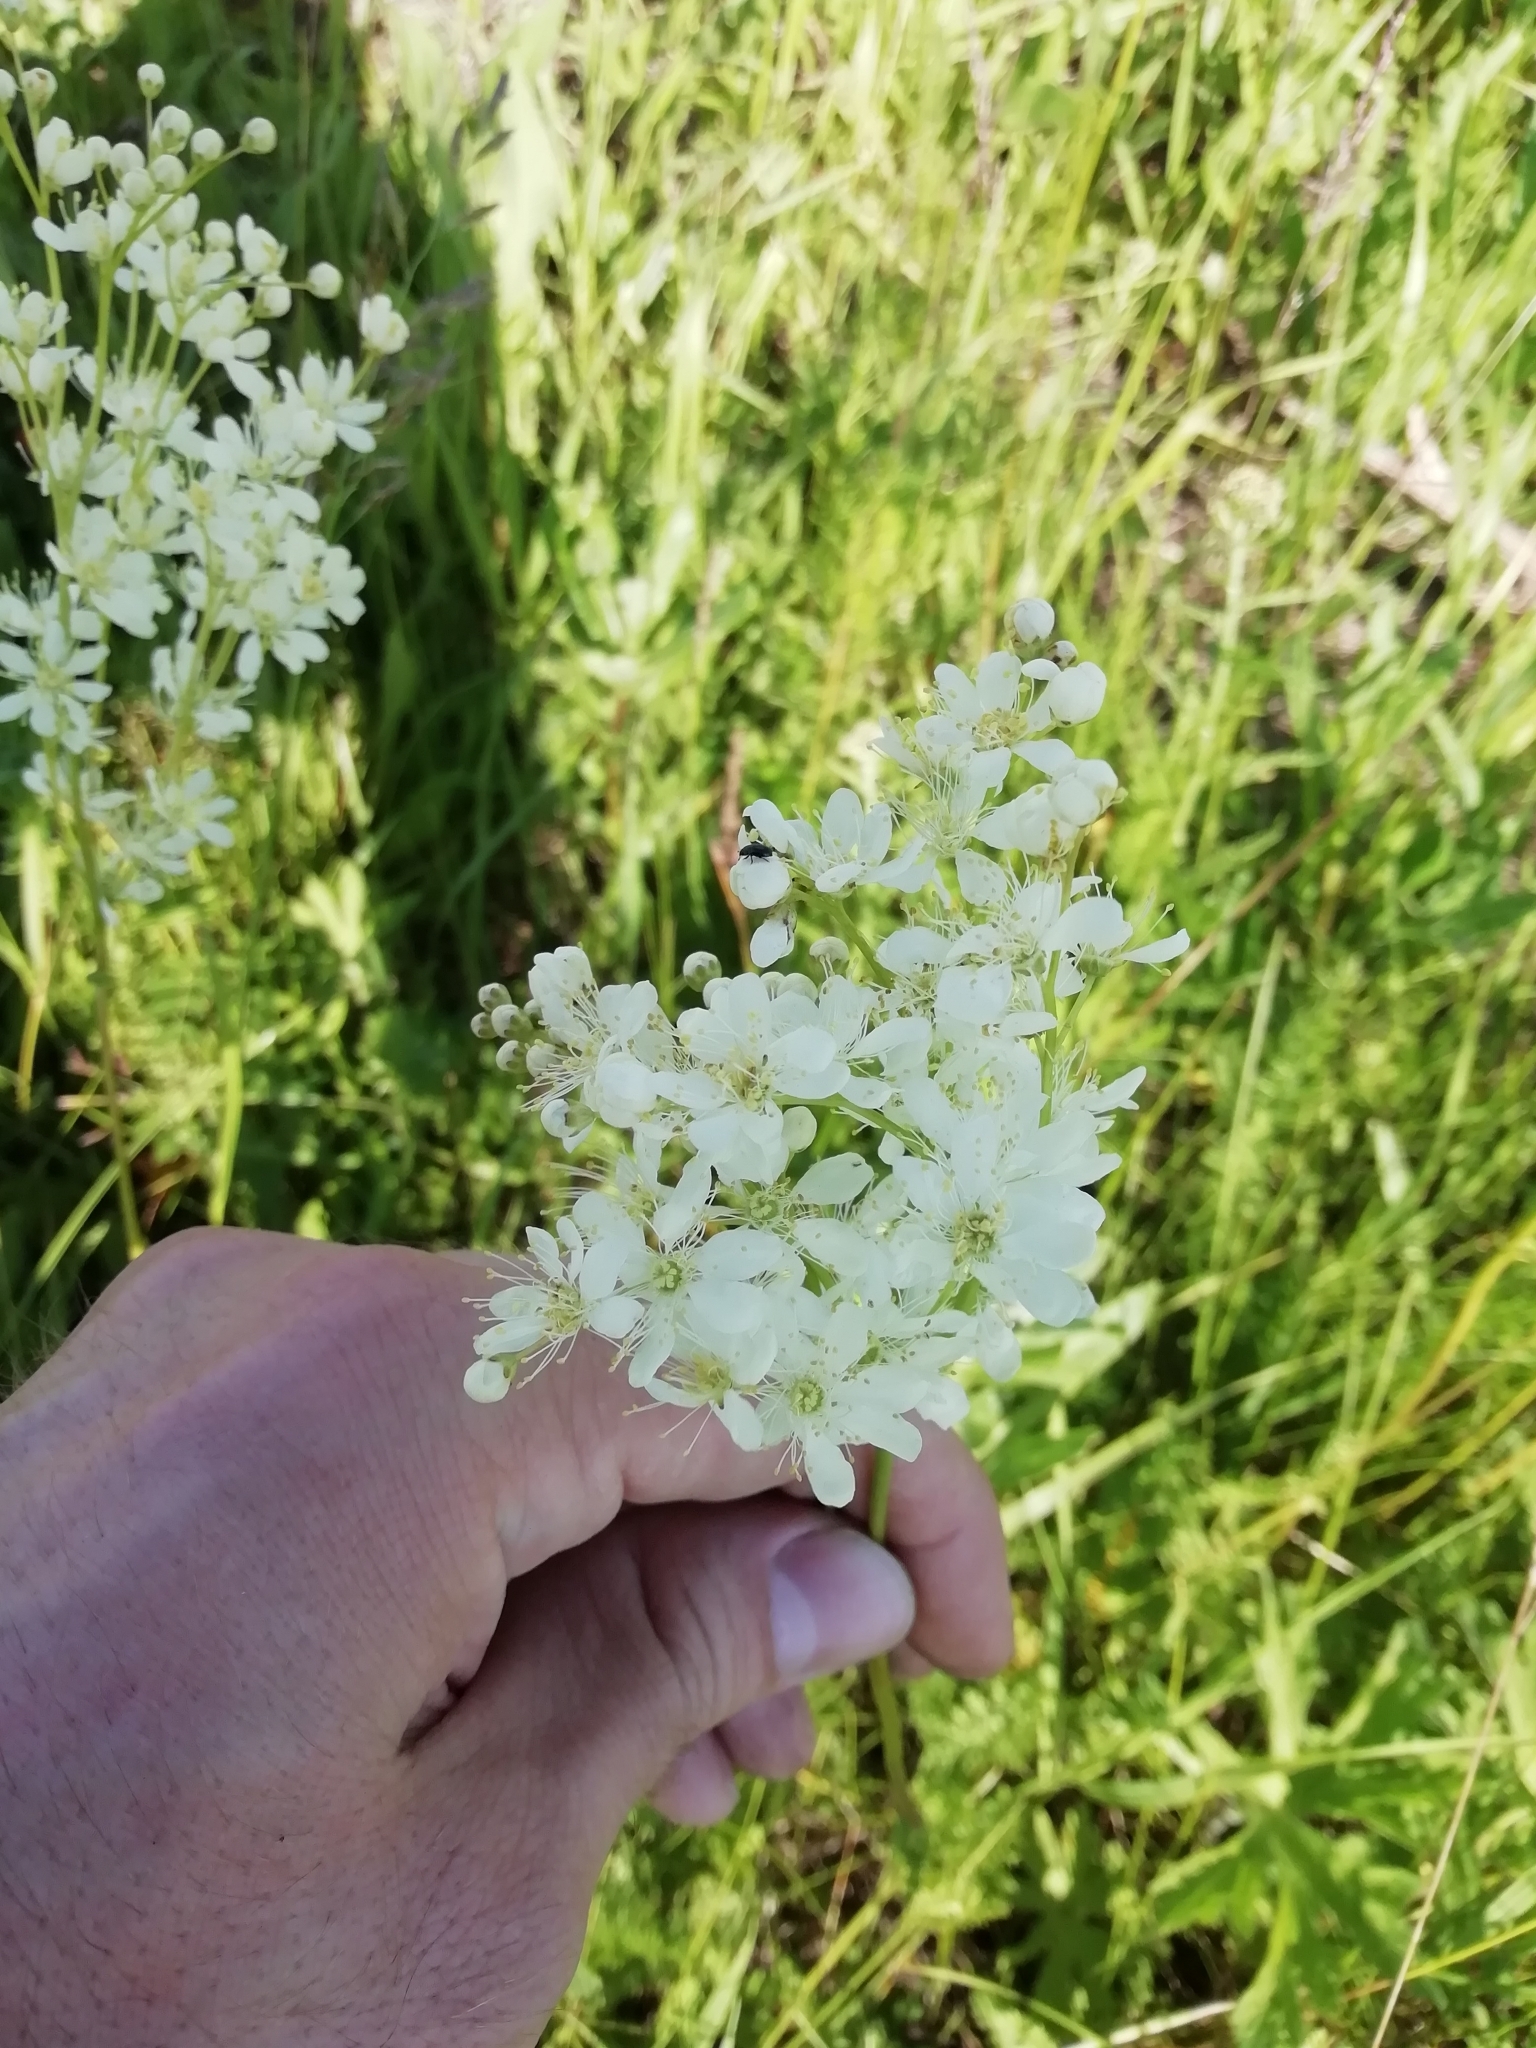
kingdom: Plantae
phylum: Tracheophyta
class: Magnoliopsida
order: Rosales
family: Rosaceae
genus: Filipendula
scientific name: Filipendula vulgaris
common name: Dropwort
